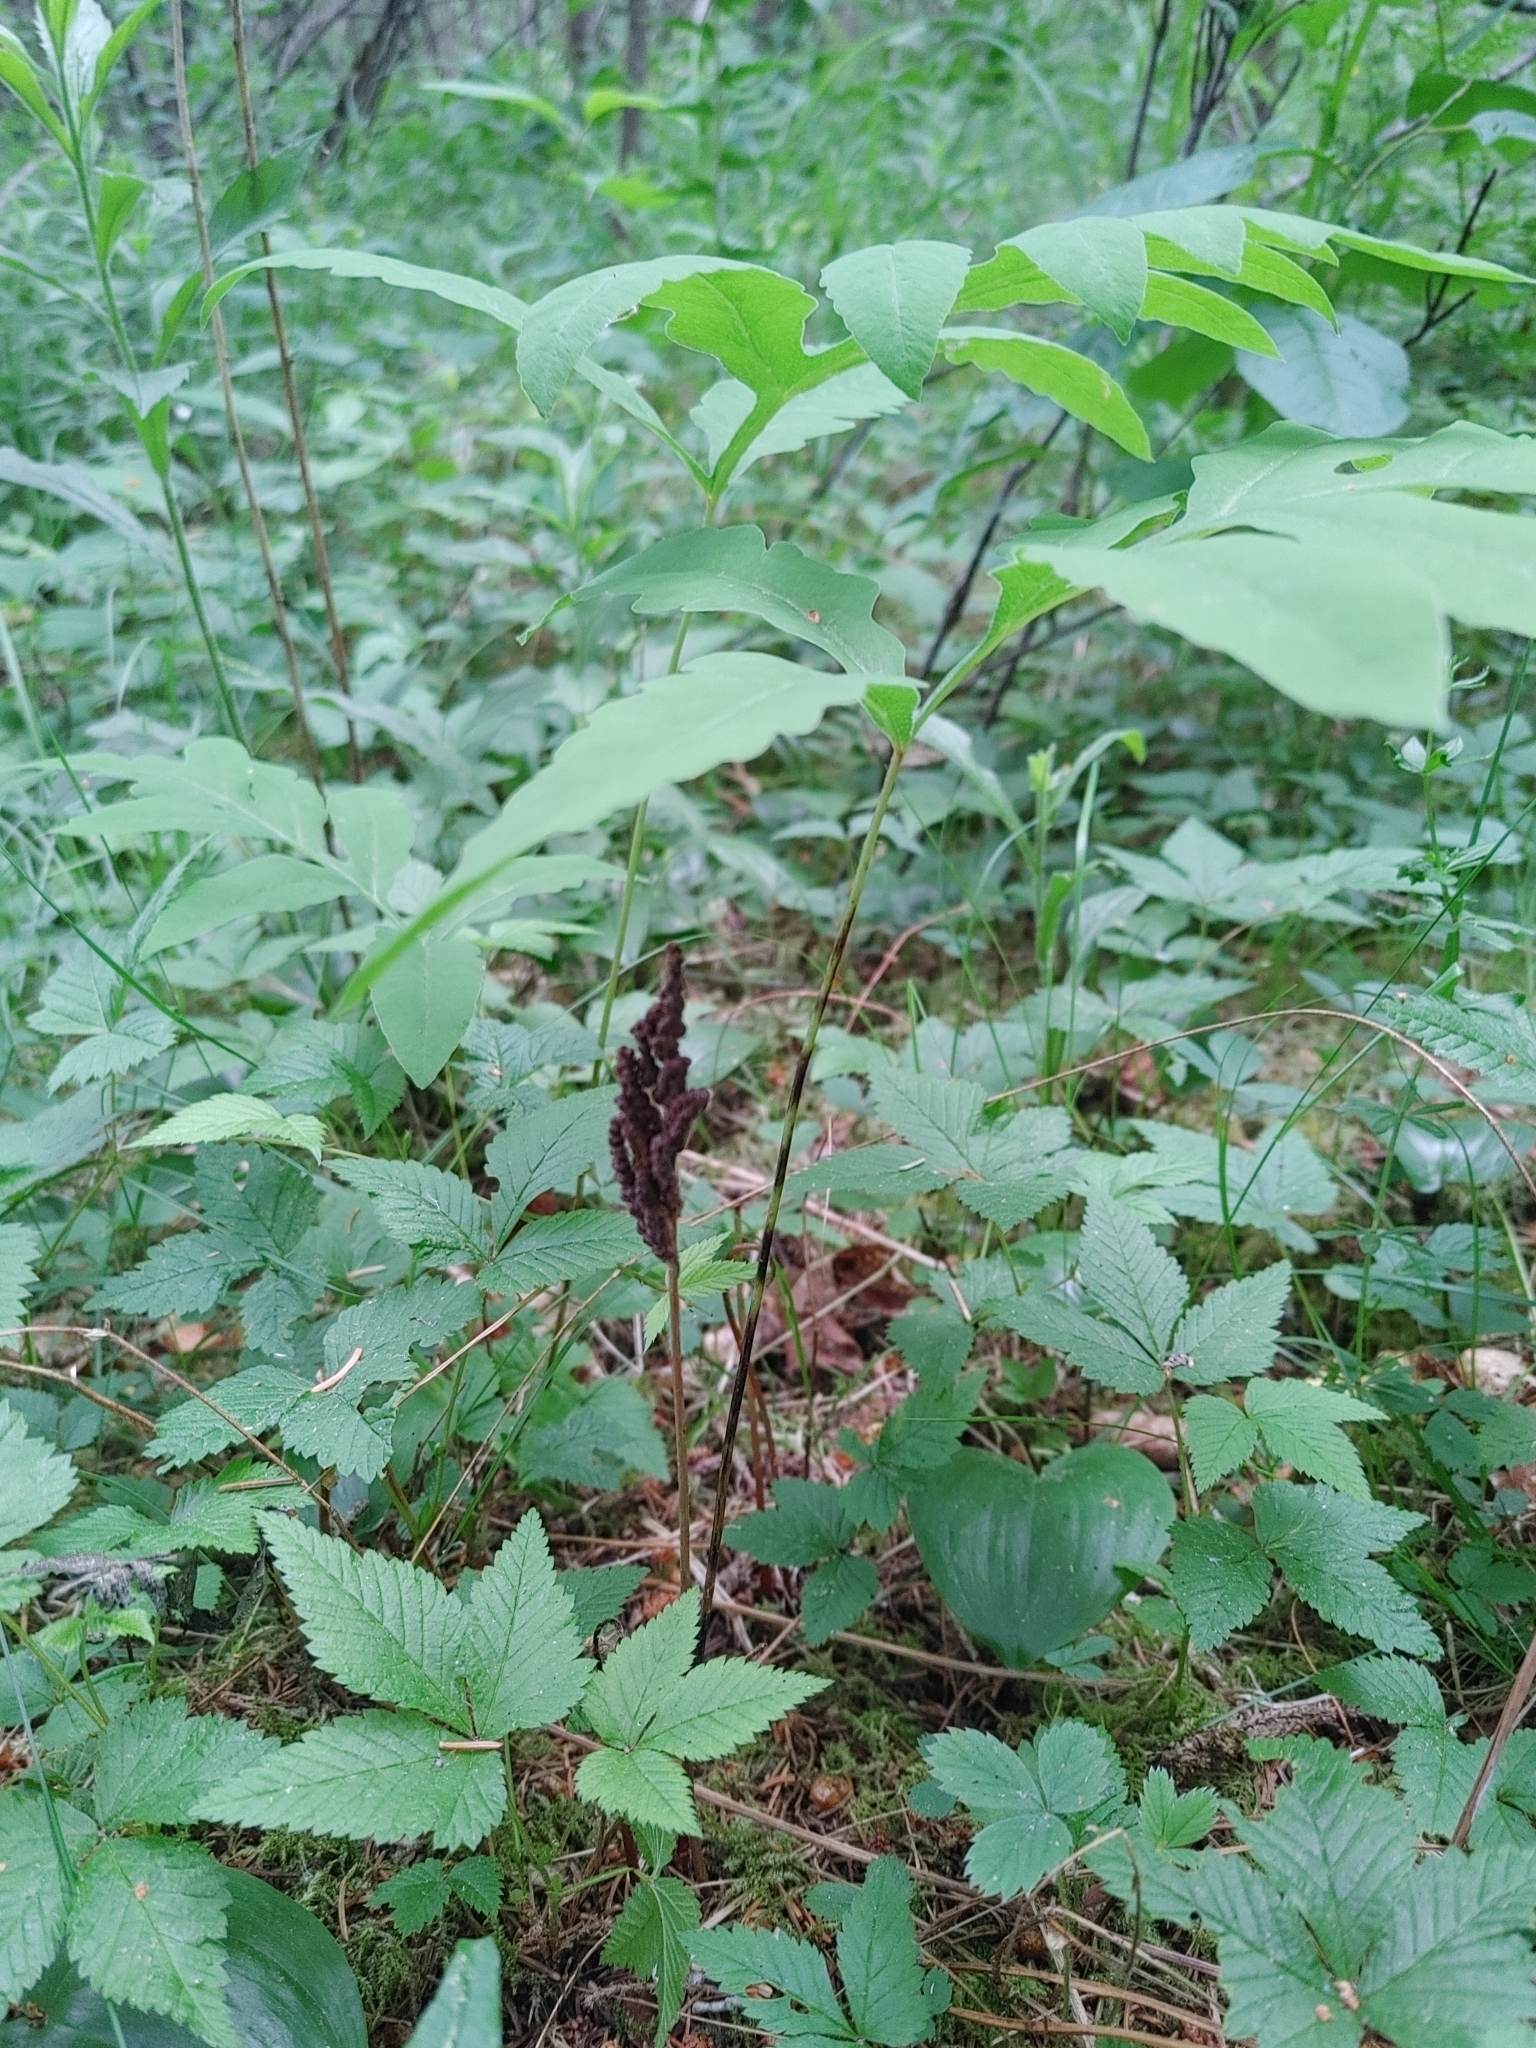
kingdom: Plantae
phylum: Tracheophyta
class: Polypodiopsida
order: Polypodiales
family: Onocleaceae
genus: Onoclea
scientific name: Onoclea sensibilis
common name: Sensitive fern
